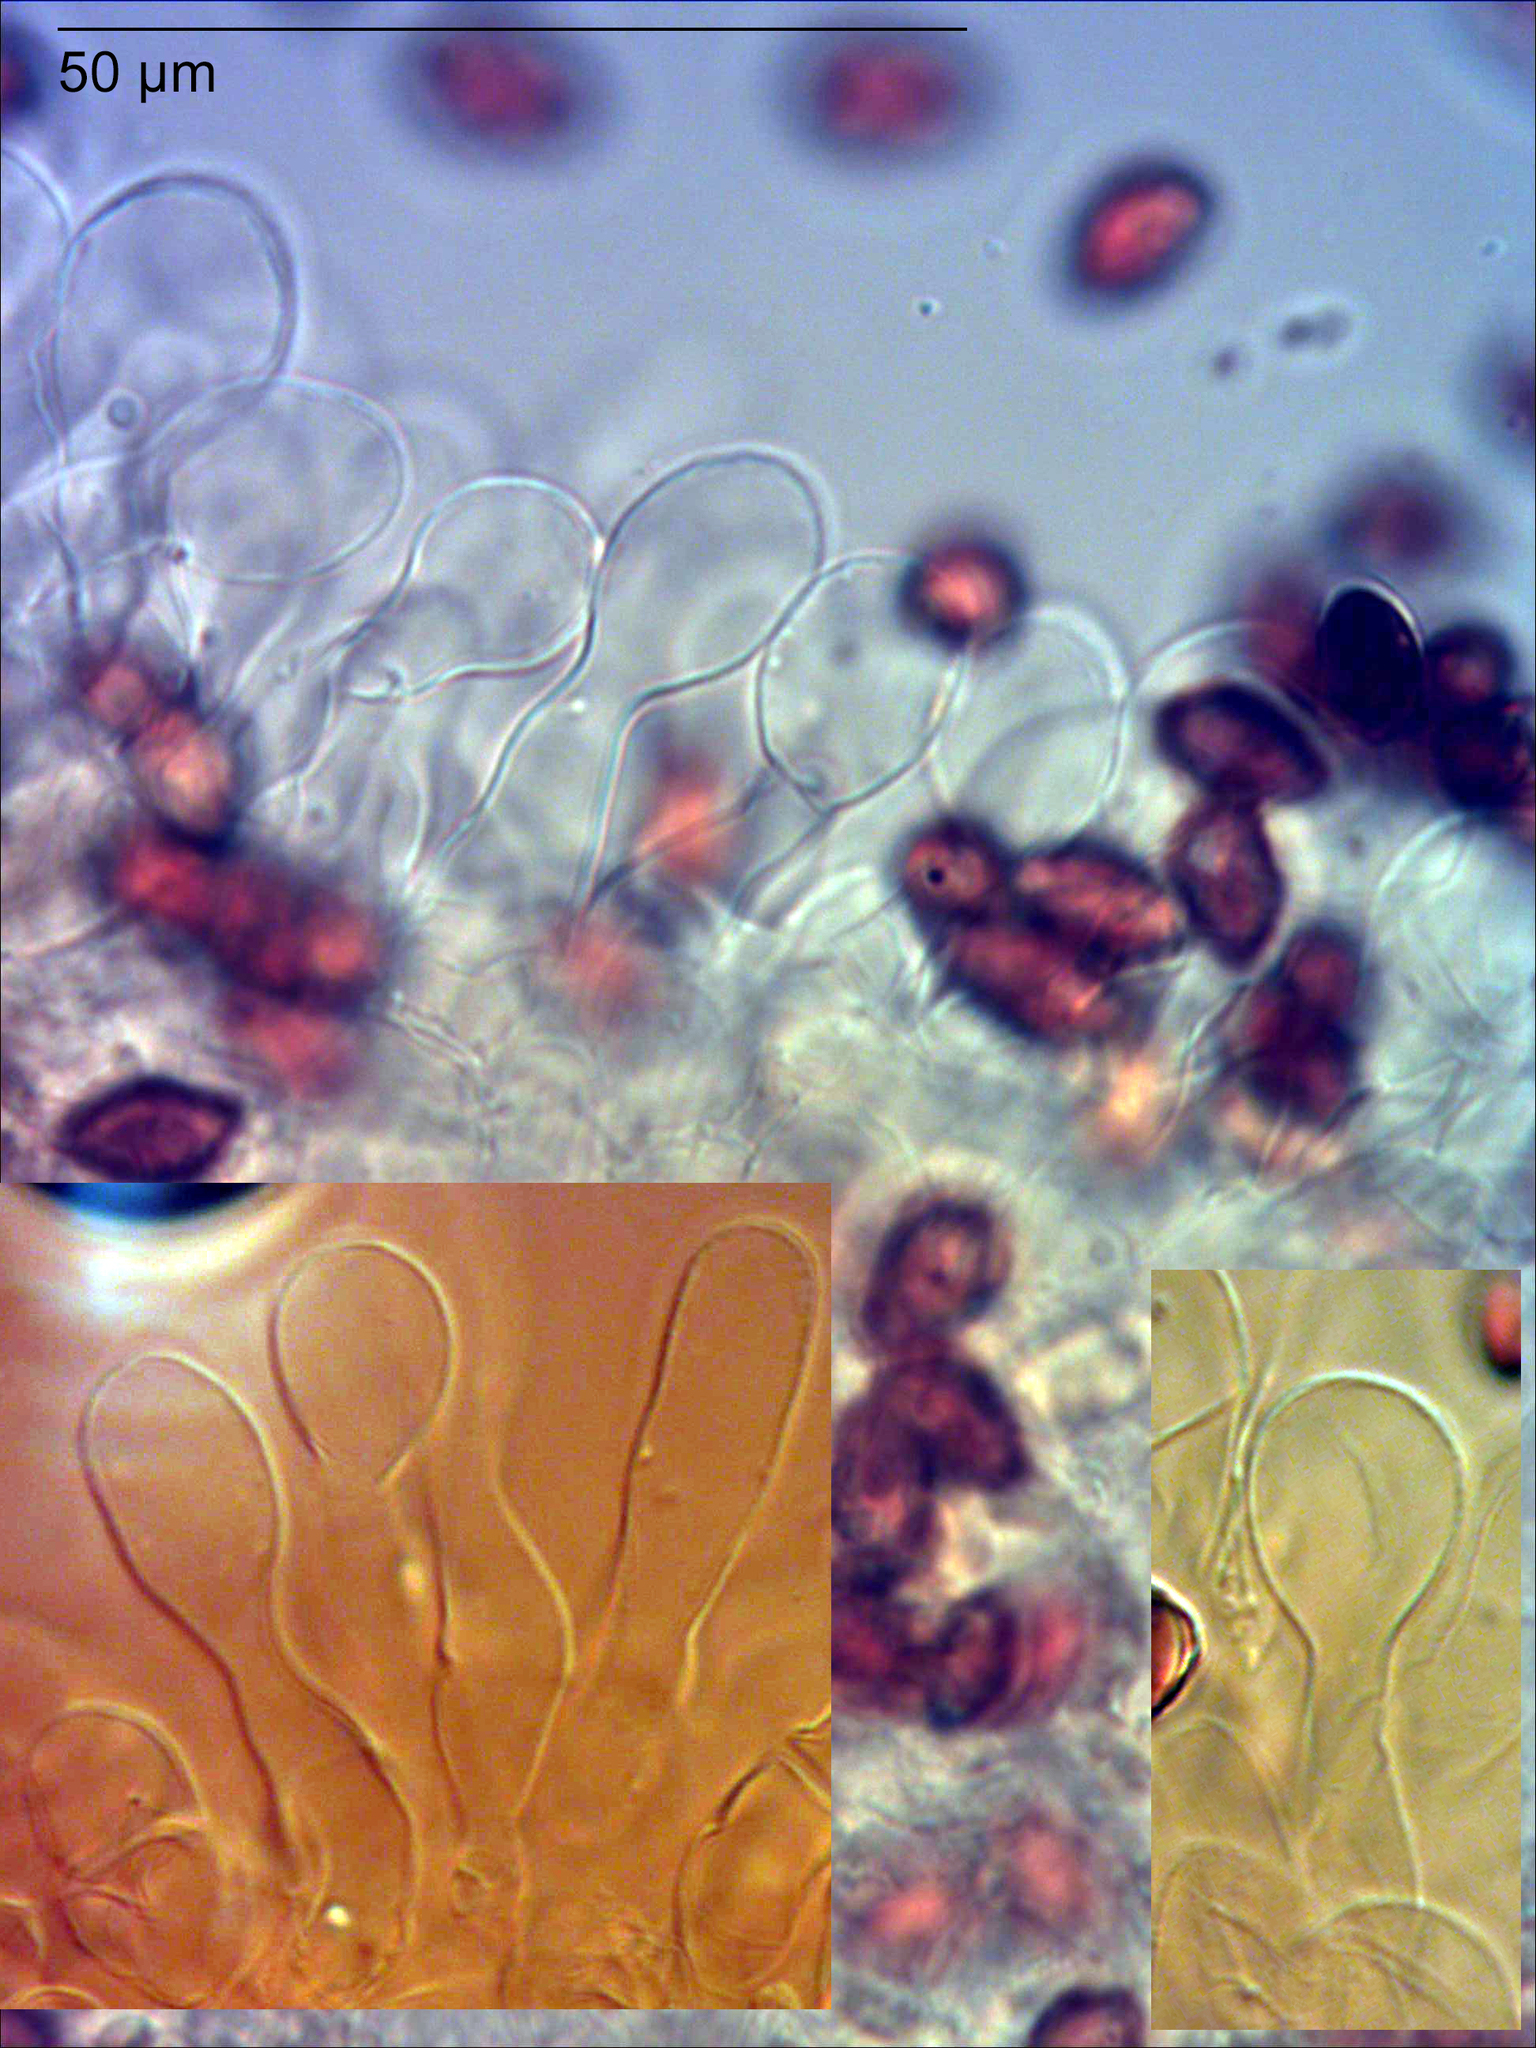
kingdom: Fungi
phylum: Basidiomycota
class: Agaricomycetes
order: Agaricales
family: Hymenogastraceae
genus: Galerina
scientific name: Galerina austrocalyptrata
